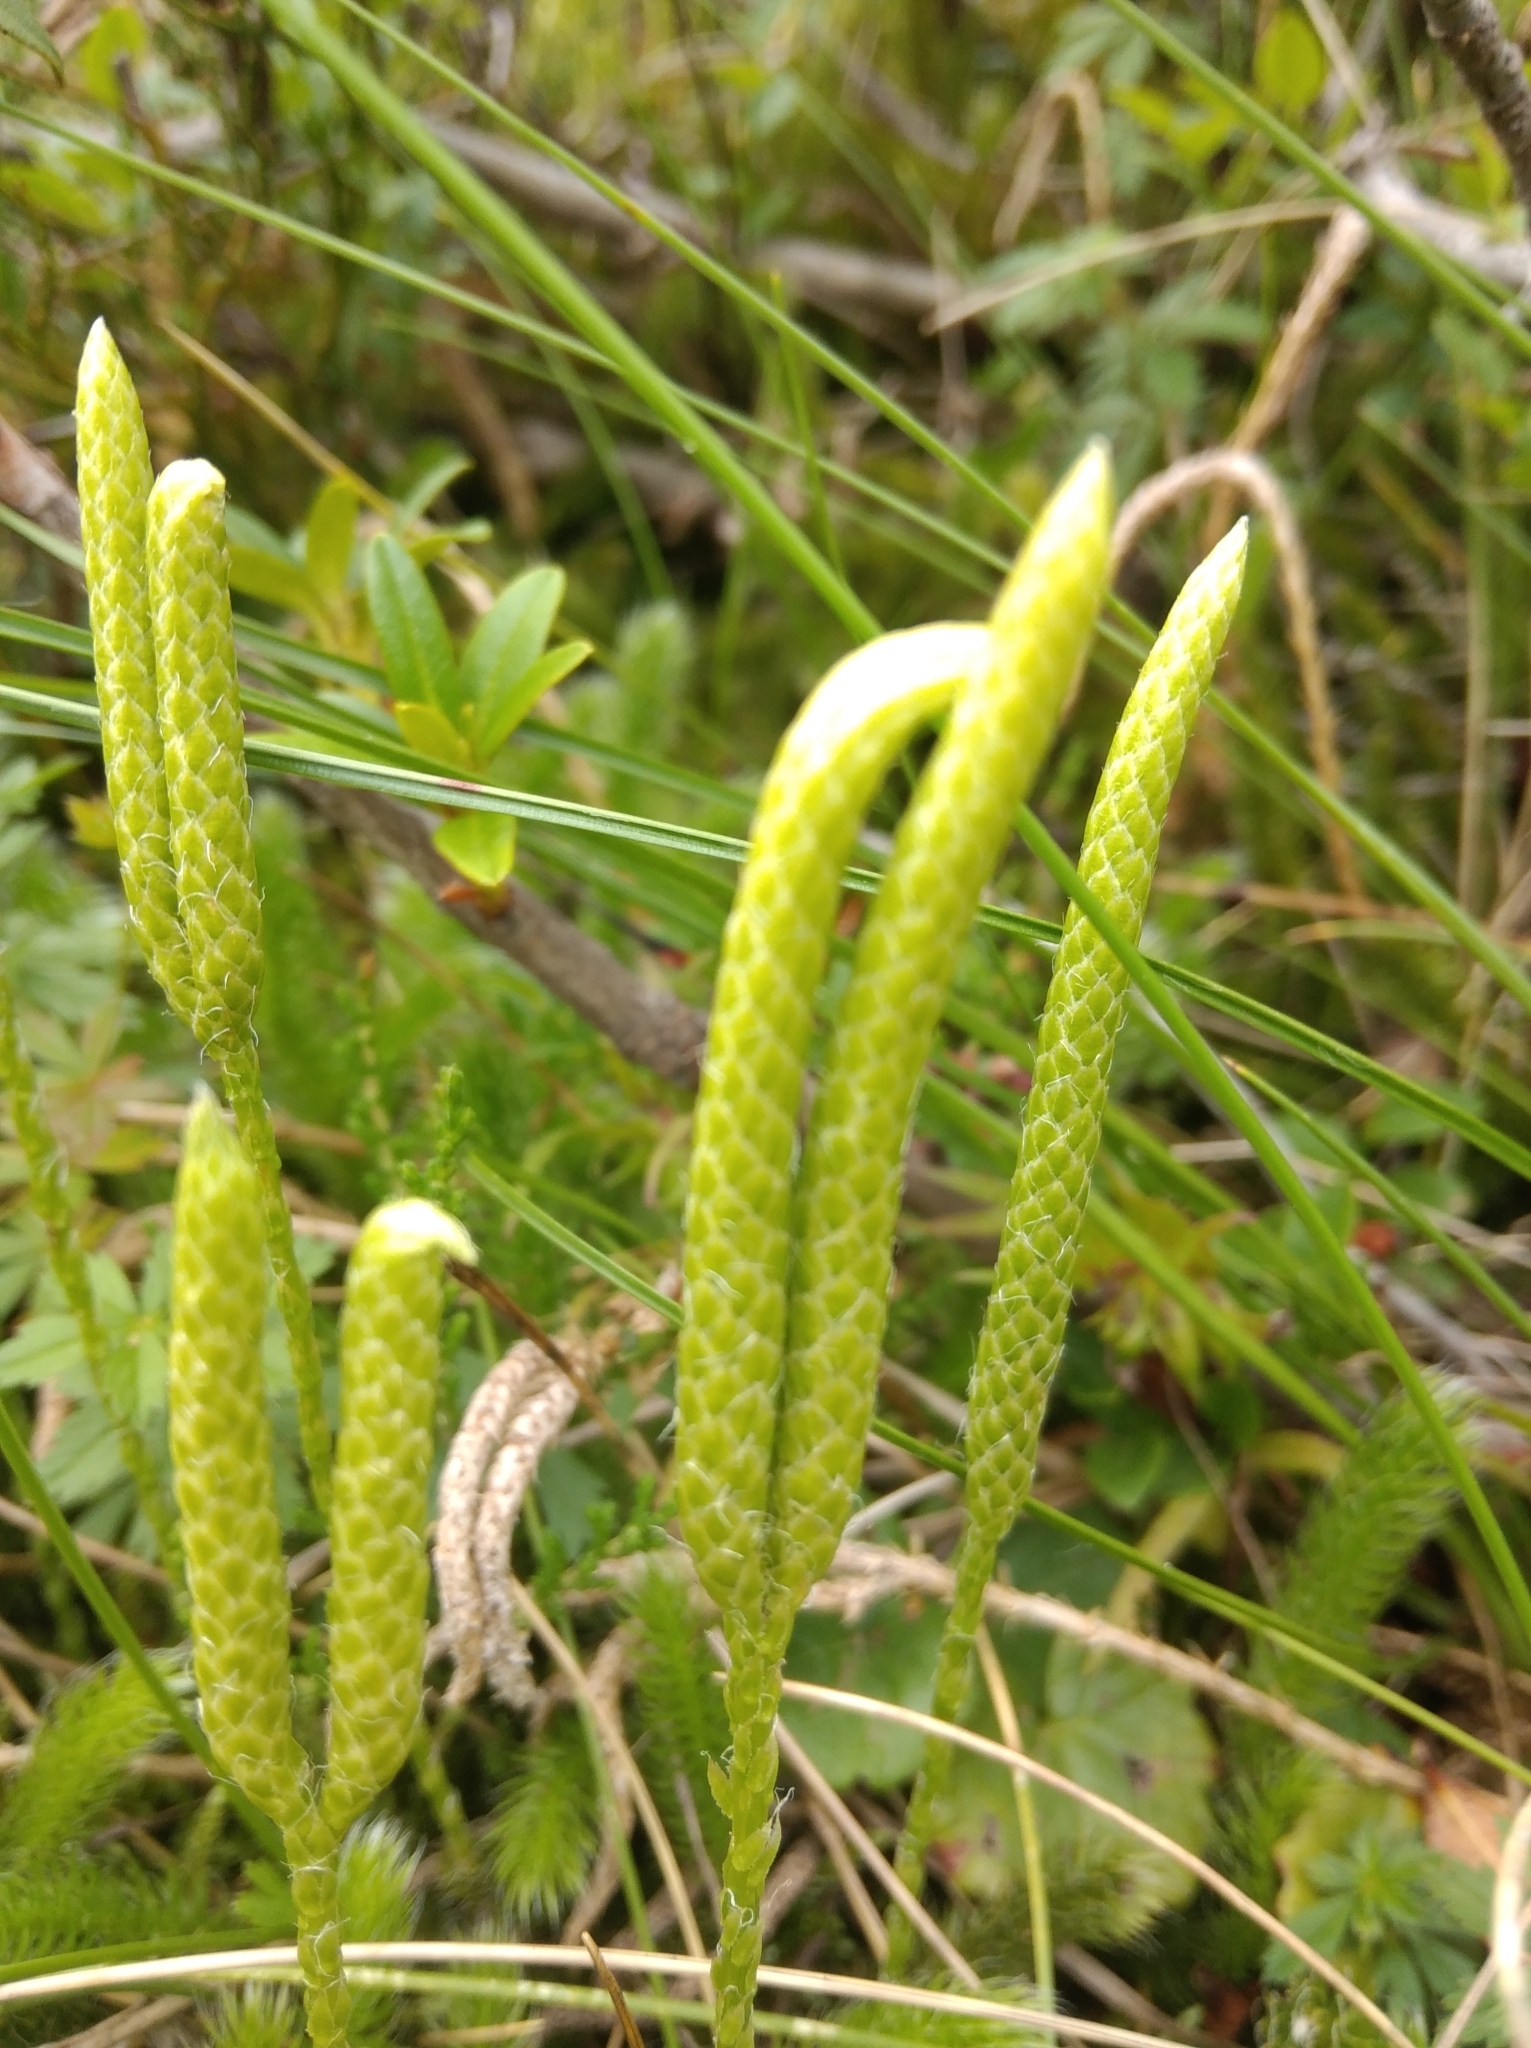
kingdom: Plantae
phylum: Tracheophyta
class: Lycopodiopsida
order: Lycopodiales
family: Lycopodiaceae
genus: Lycopodium
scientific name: Lycopodium clavatum
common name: Stag's-horn clubmoss
